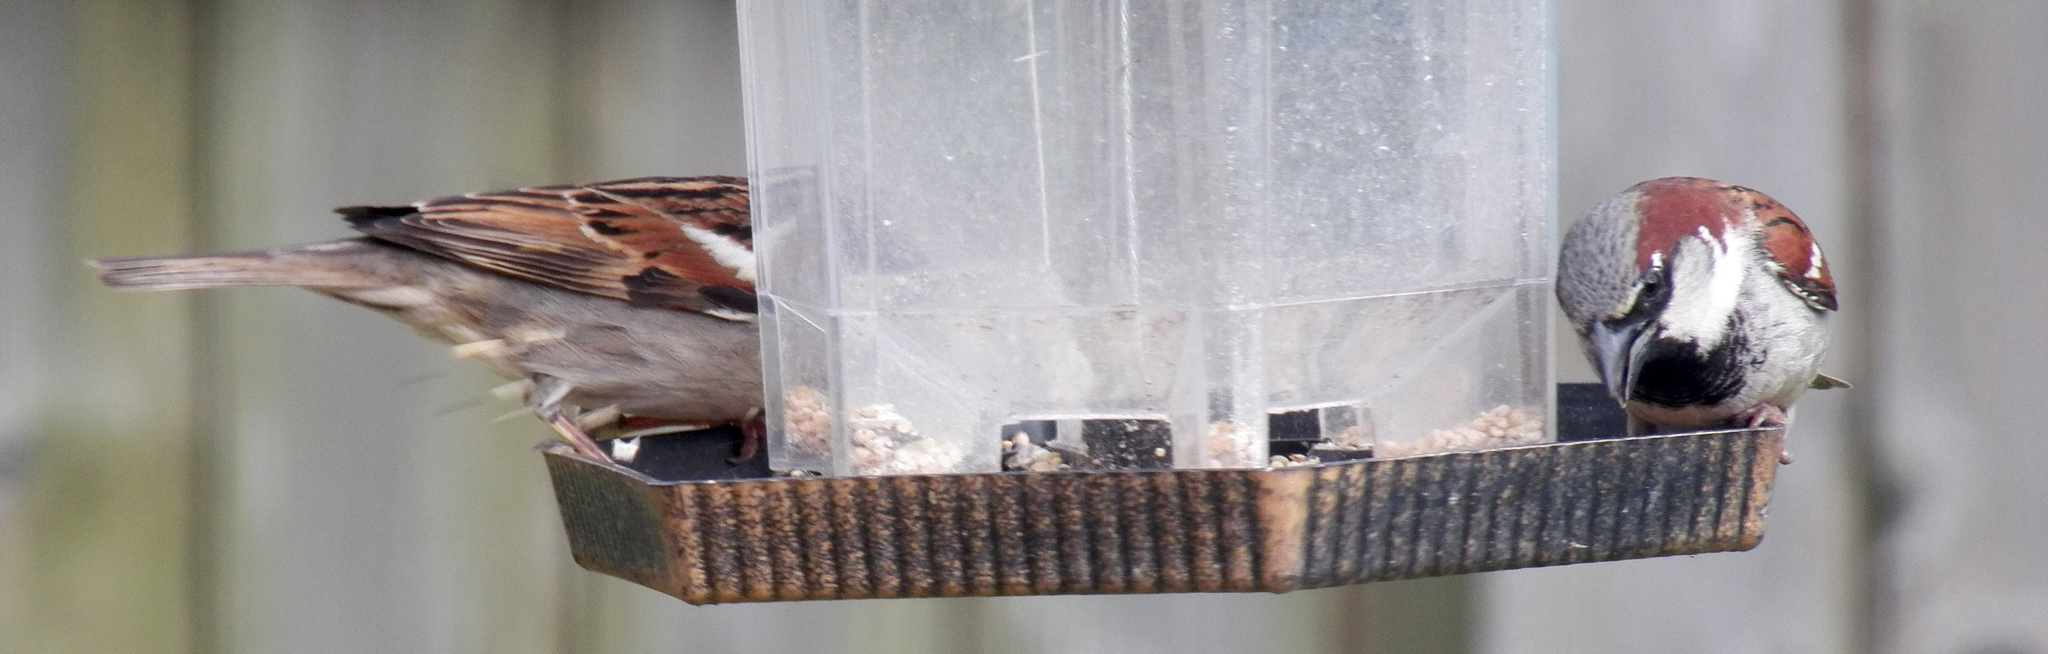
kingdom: Animalia
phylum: Chordata
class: Aves
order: Passeriformes
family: Passeridae
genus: Passer
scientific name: Passer domesticus
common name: House sparrow
